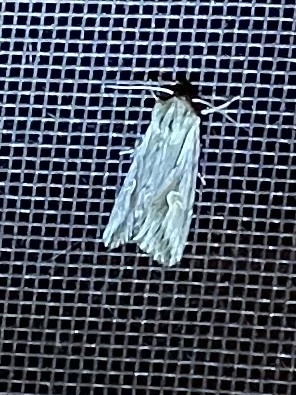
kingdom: Animalia
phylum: Arthropoda
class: Insecta
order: Lepidoptera
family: Noctuidae
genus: Nedra
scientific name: Nedra ramosula
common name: Gray half-spot
